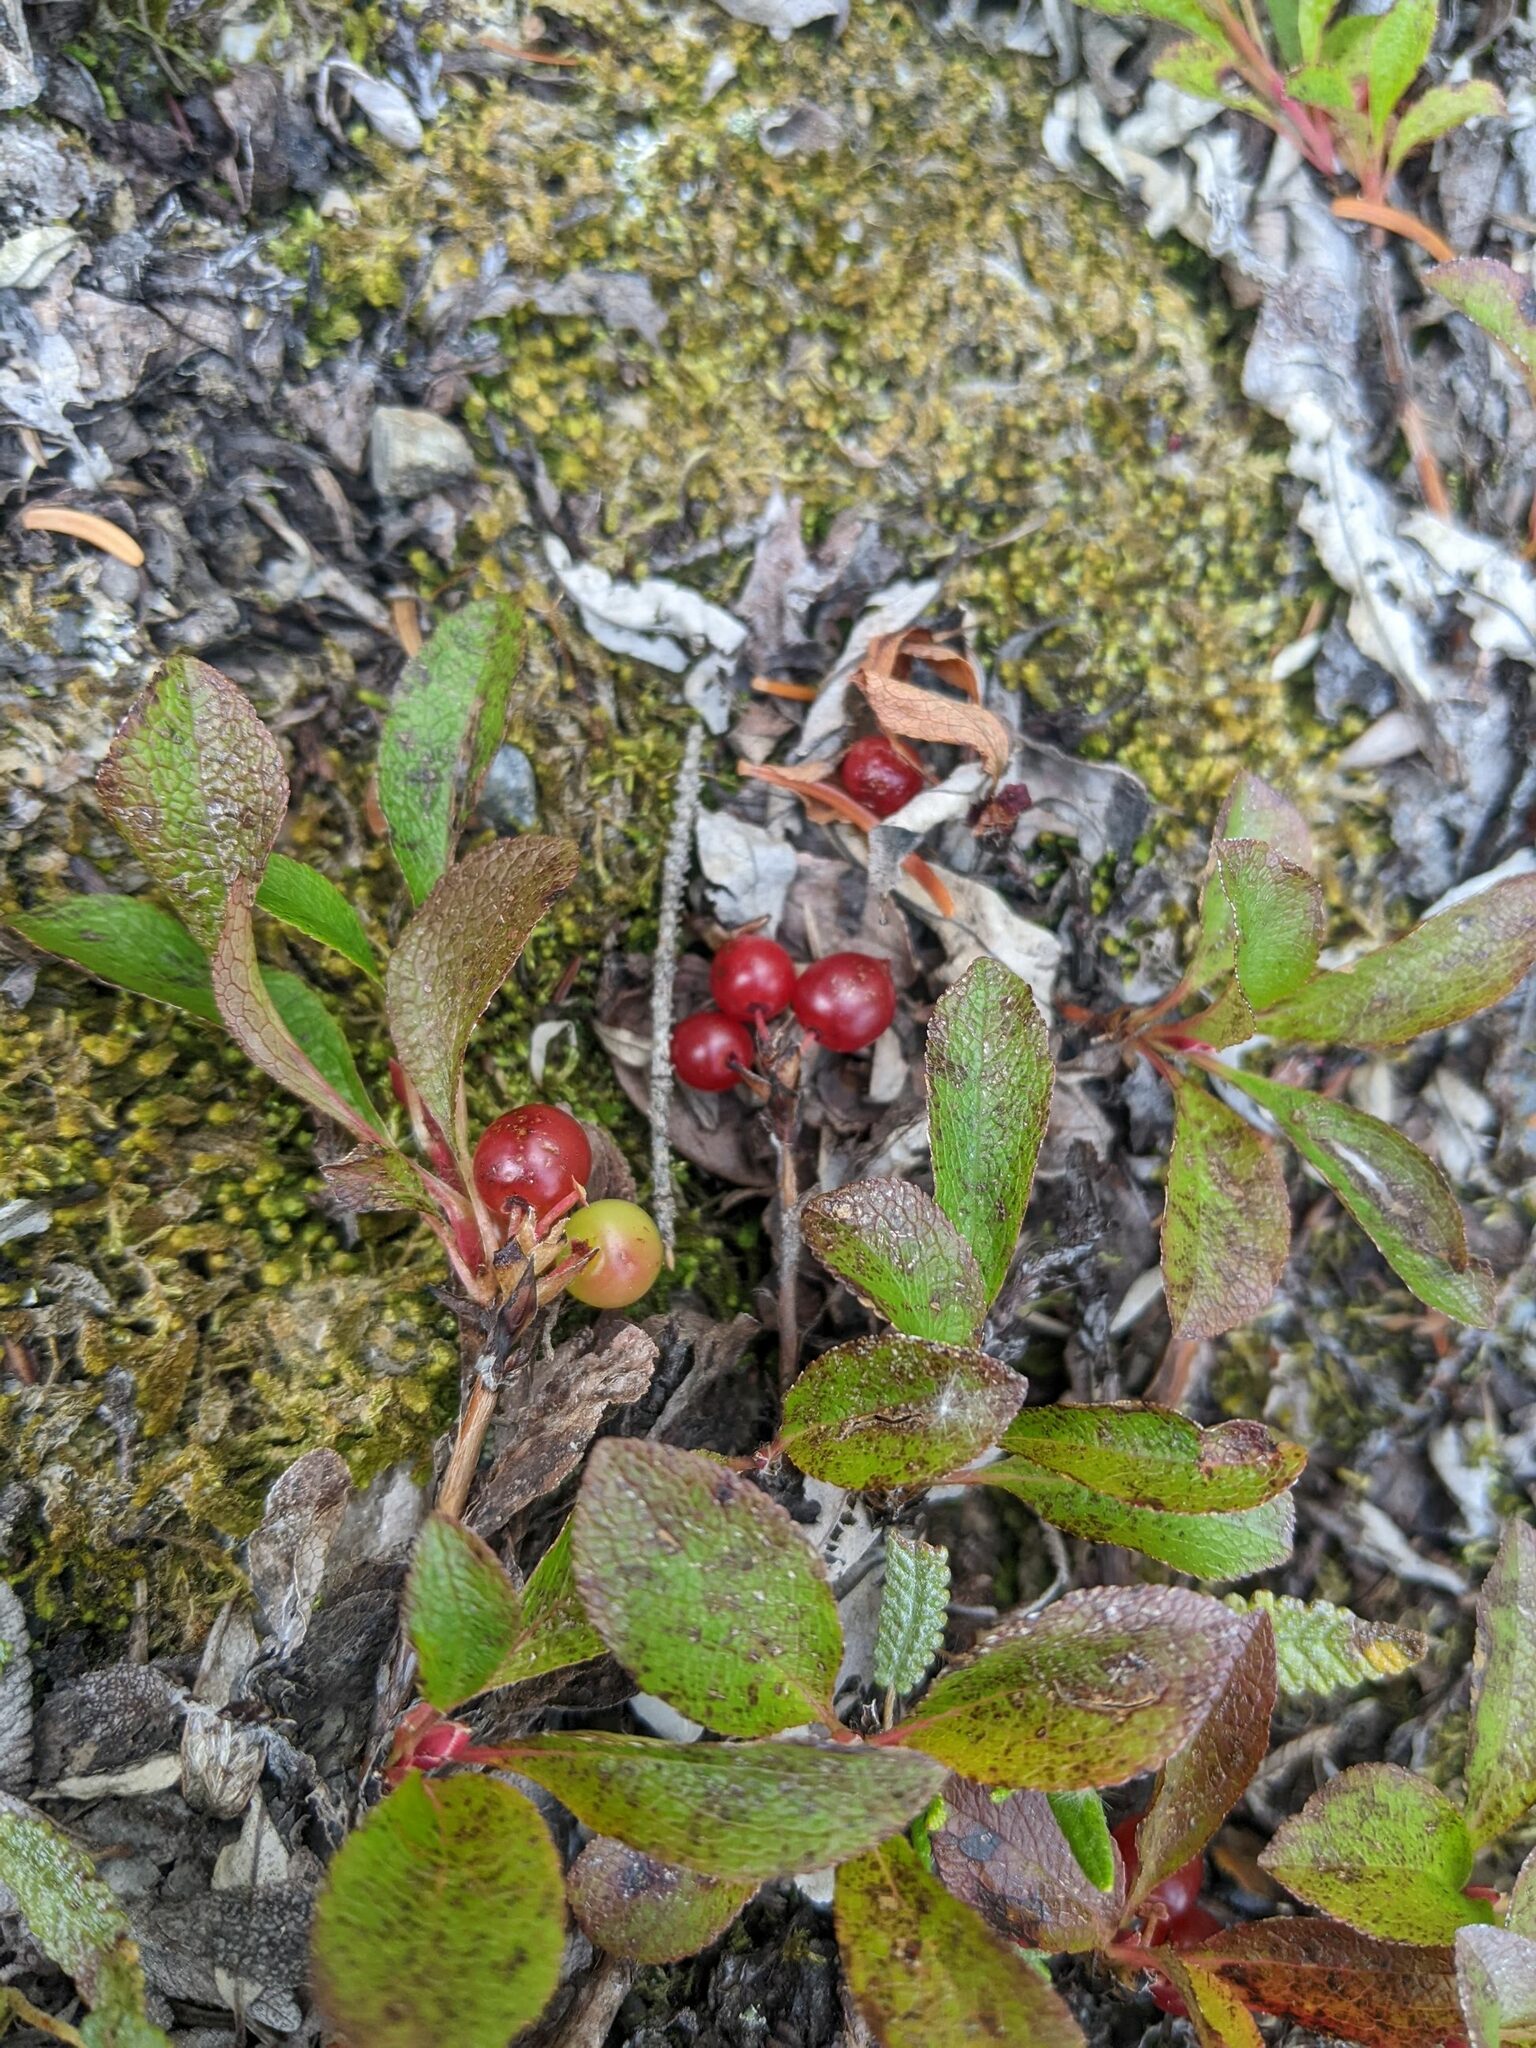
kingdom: Plantae
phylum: Tracheophyta
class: Magnoliopsida
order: Ericales
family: Ericaceae
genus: Arctostaphylos
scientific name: Arctostaphylos rubra
